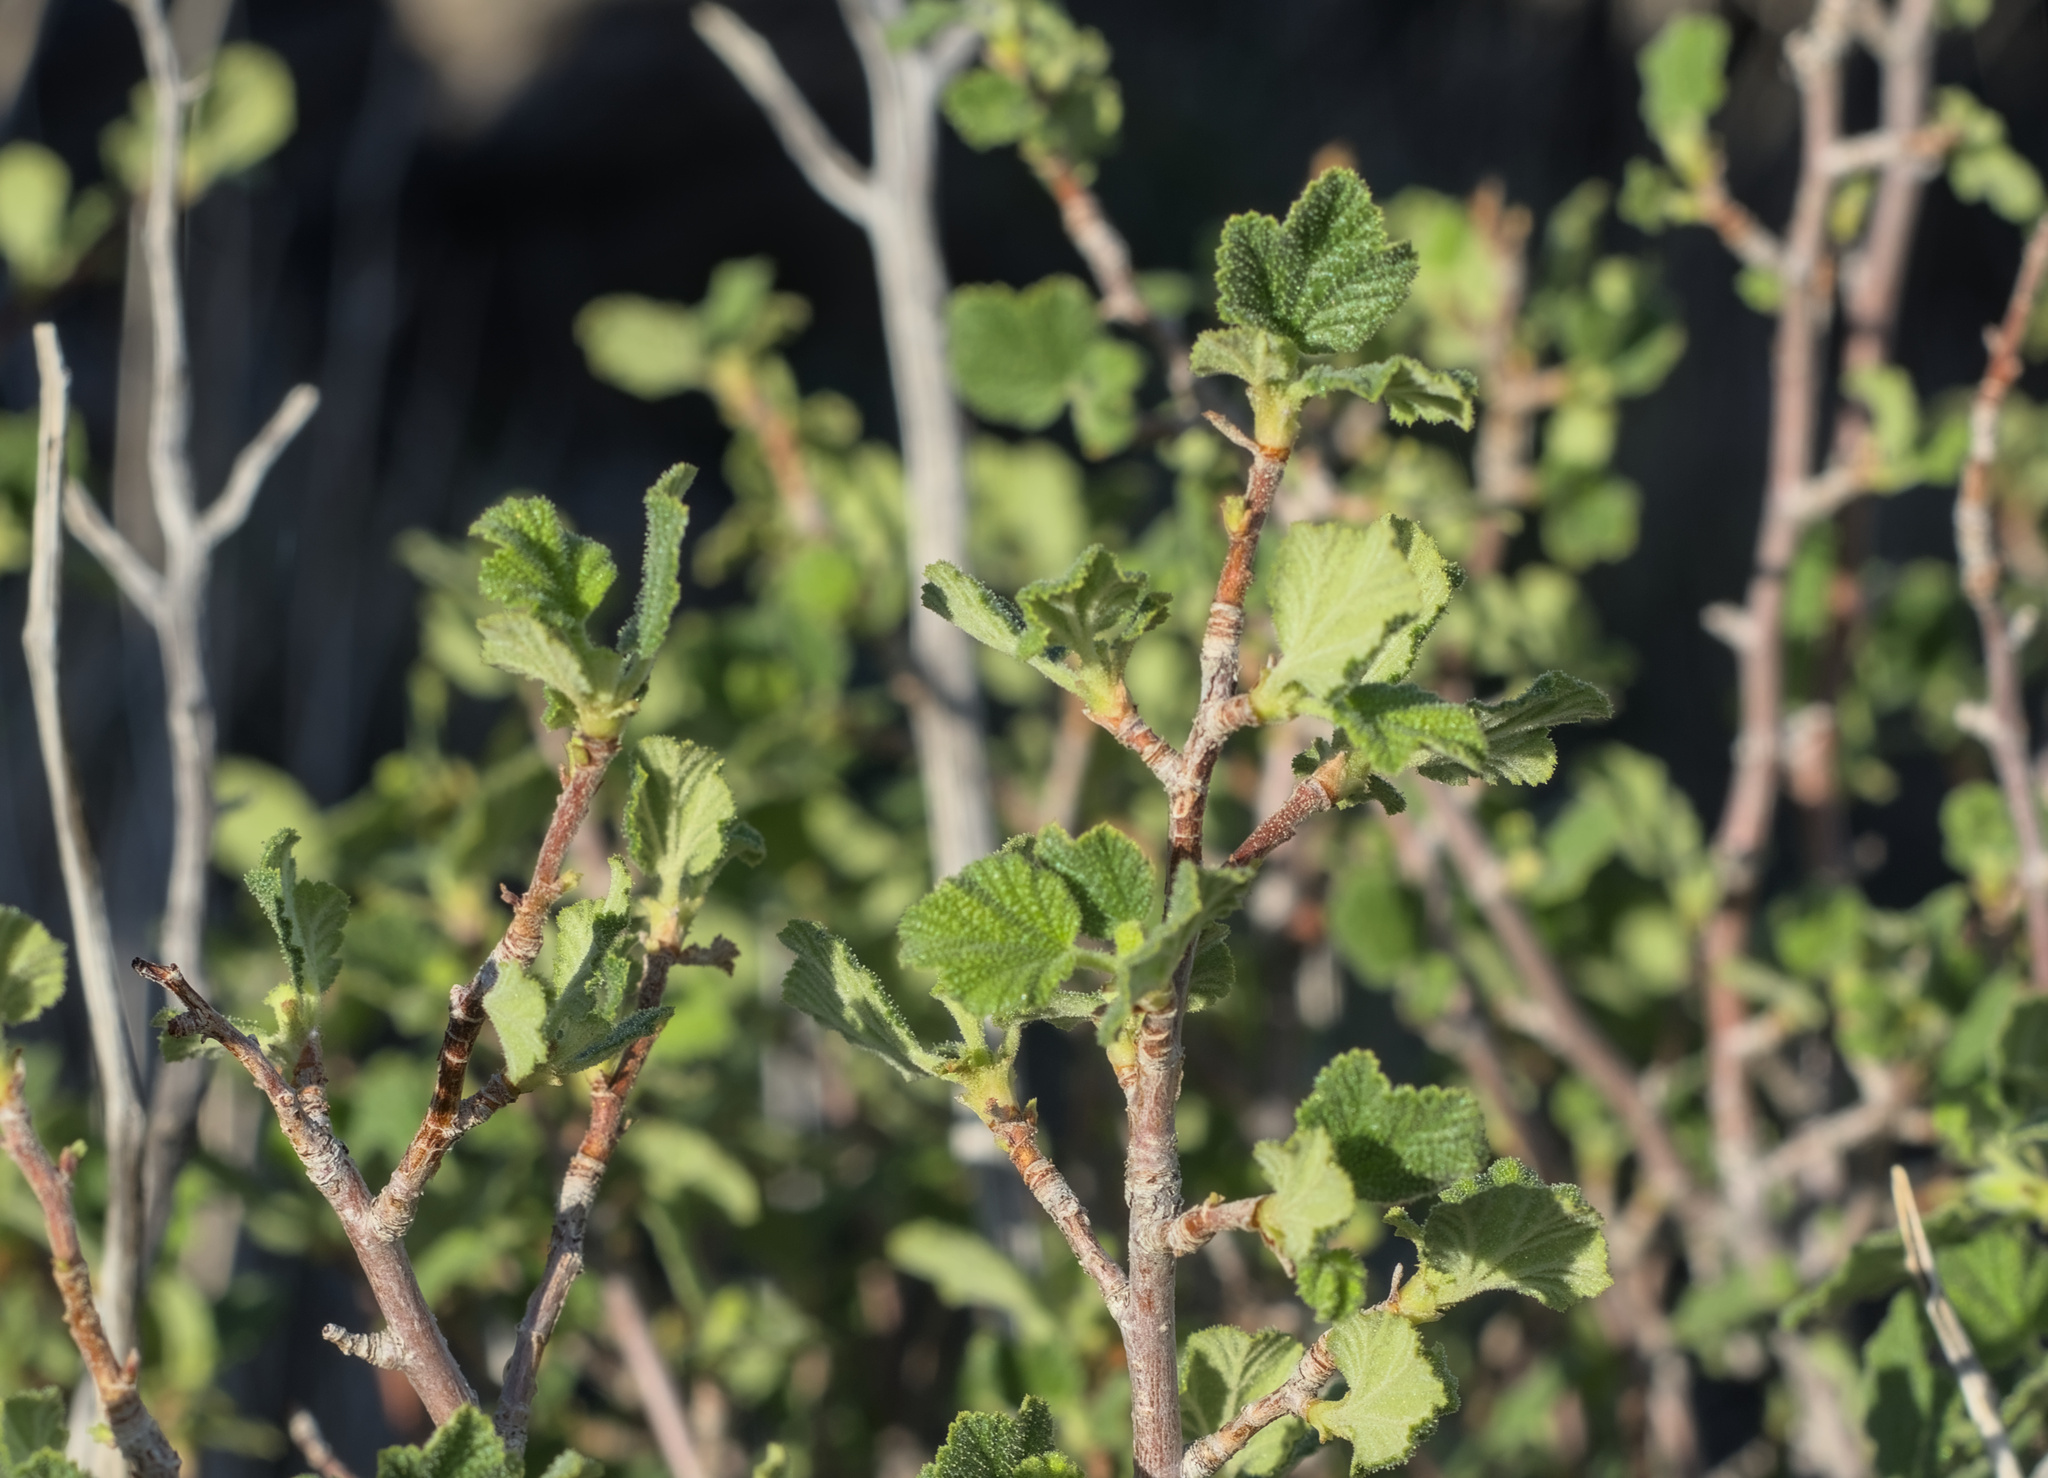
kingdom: Plantae
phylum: Tracheophyta
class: Magnoliopsida
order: Saxifragales
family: Grossulariaceae
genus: Ribes
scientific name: Ribes indecorum
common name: White-flower currant
